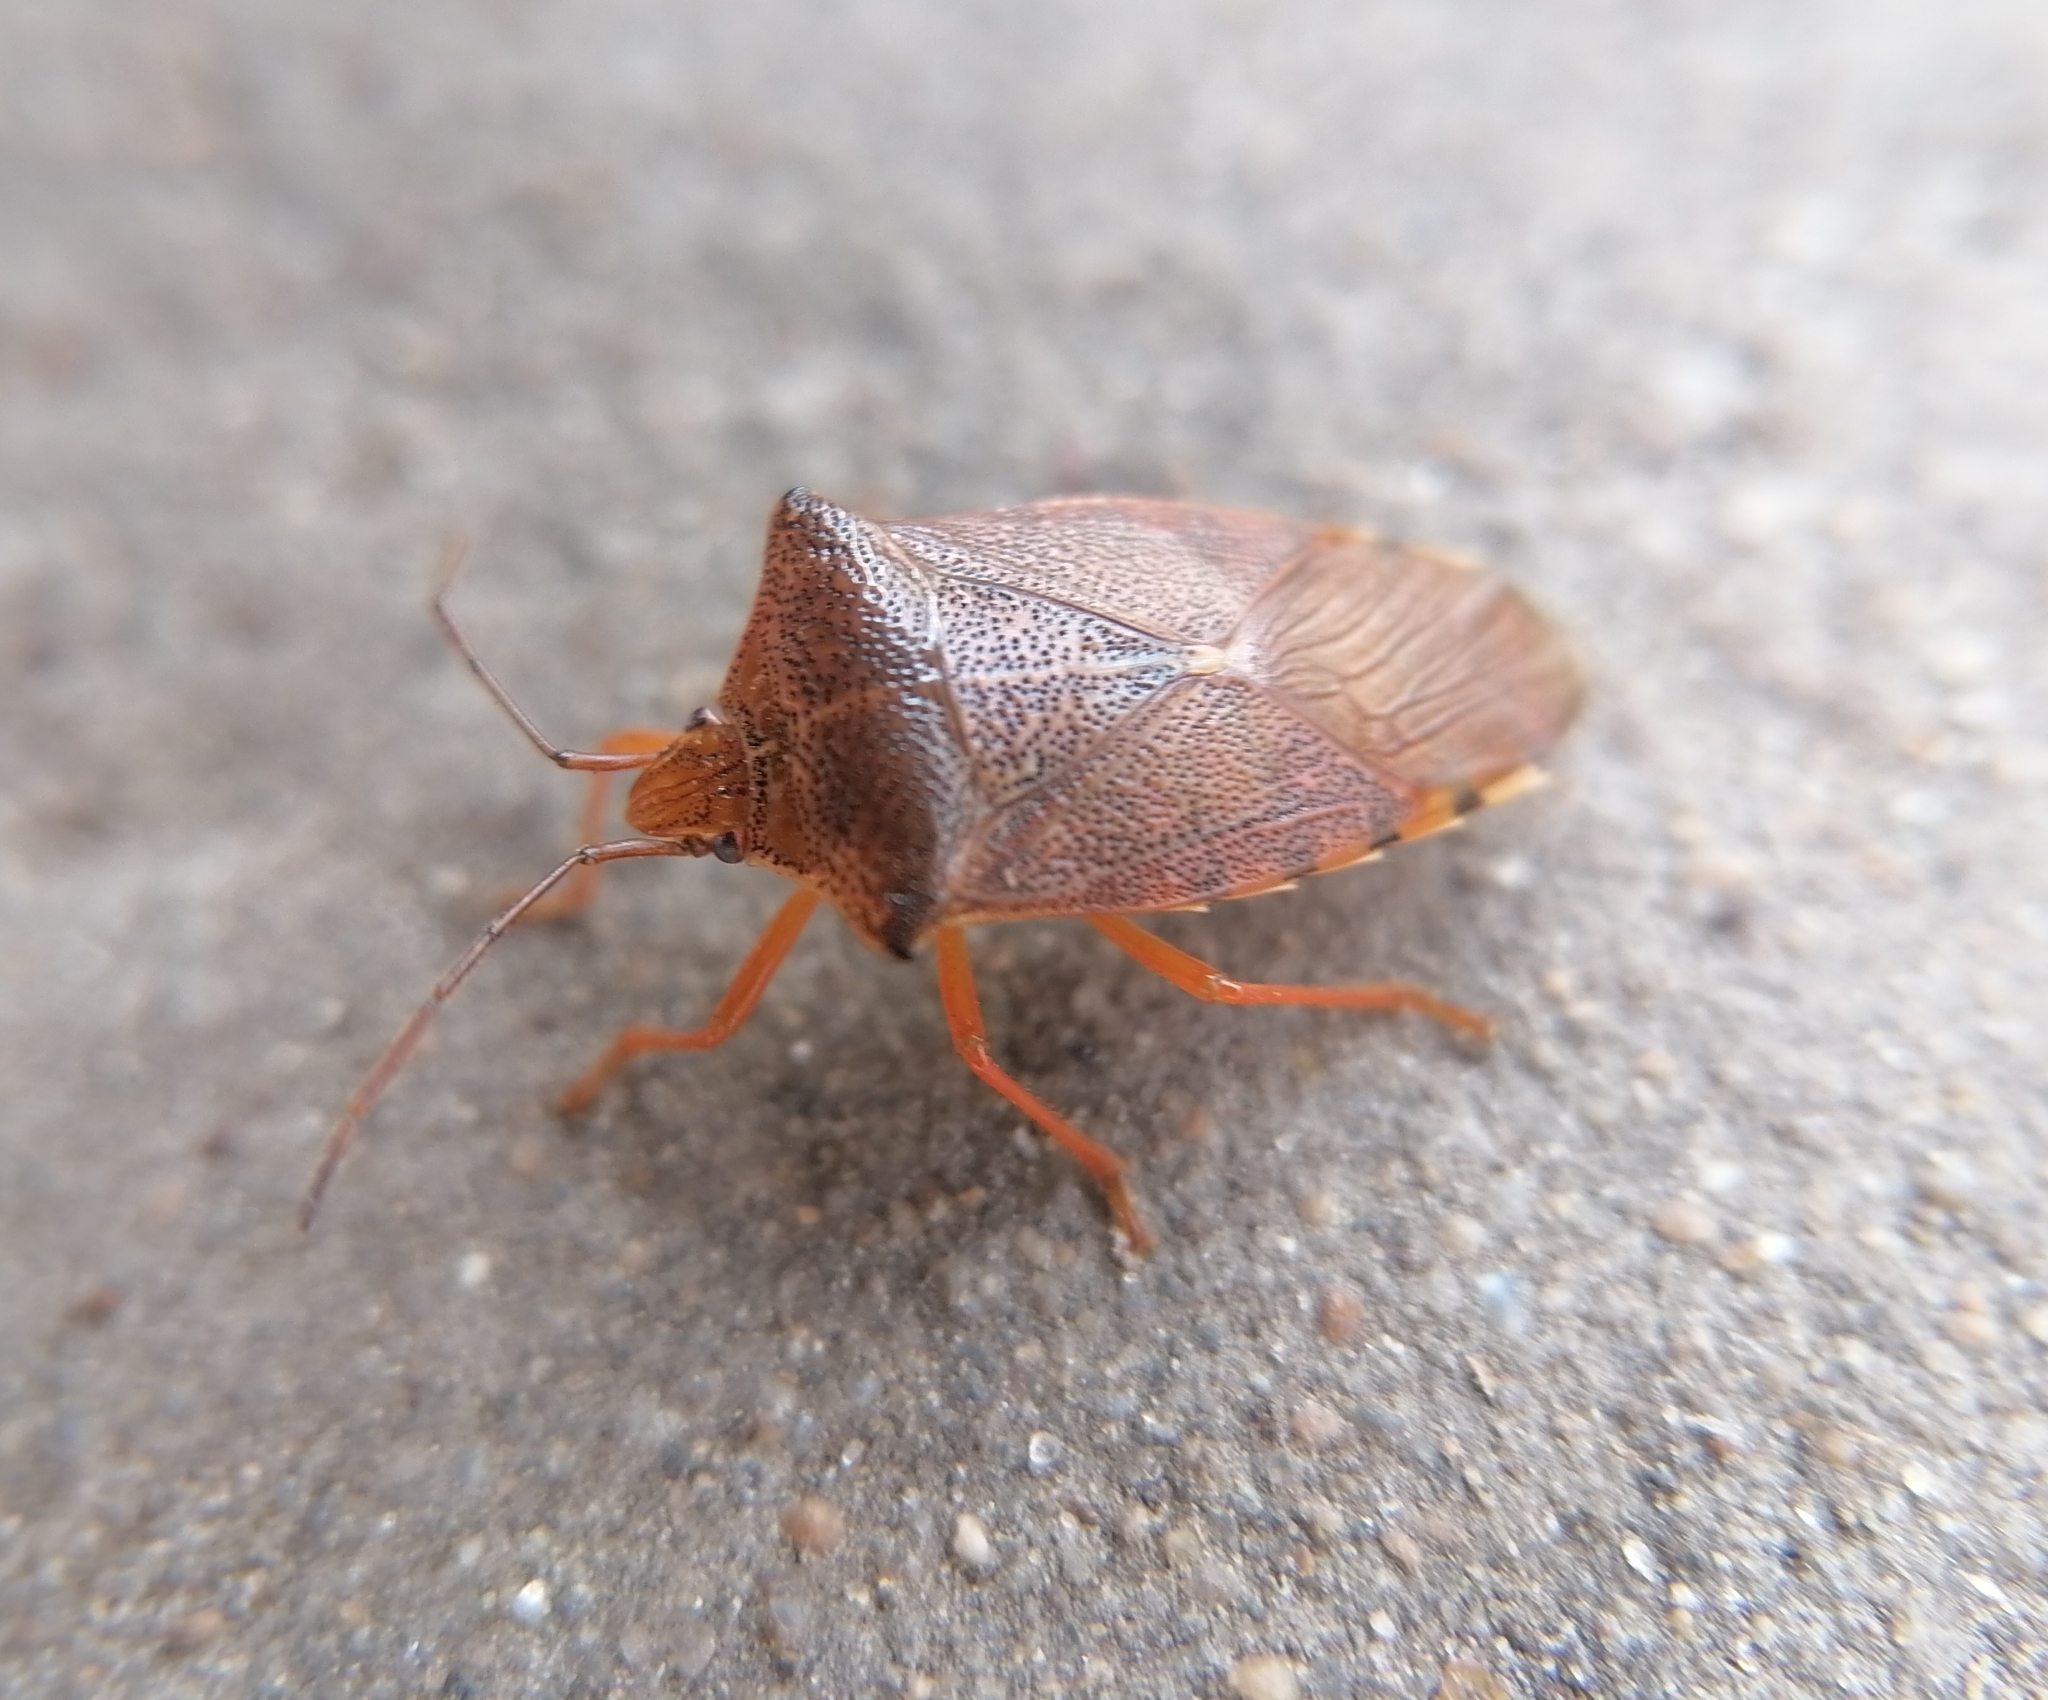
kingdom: Animalia
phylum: Arthropoda
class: Insecta
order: Hemiptera
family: Acanthosomatidae
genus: Acanthosoma
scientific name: Acanthosoma denticaudum
